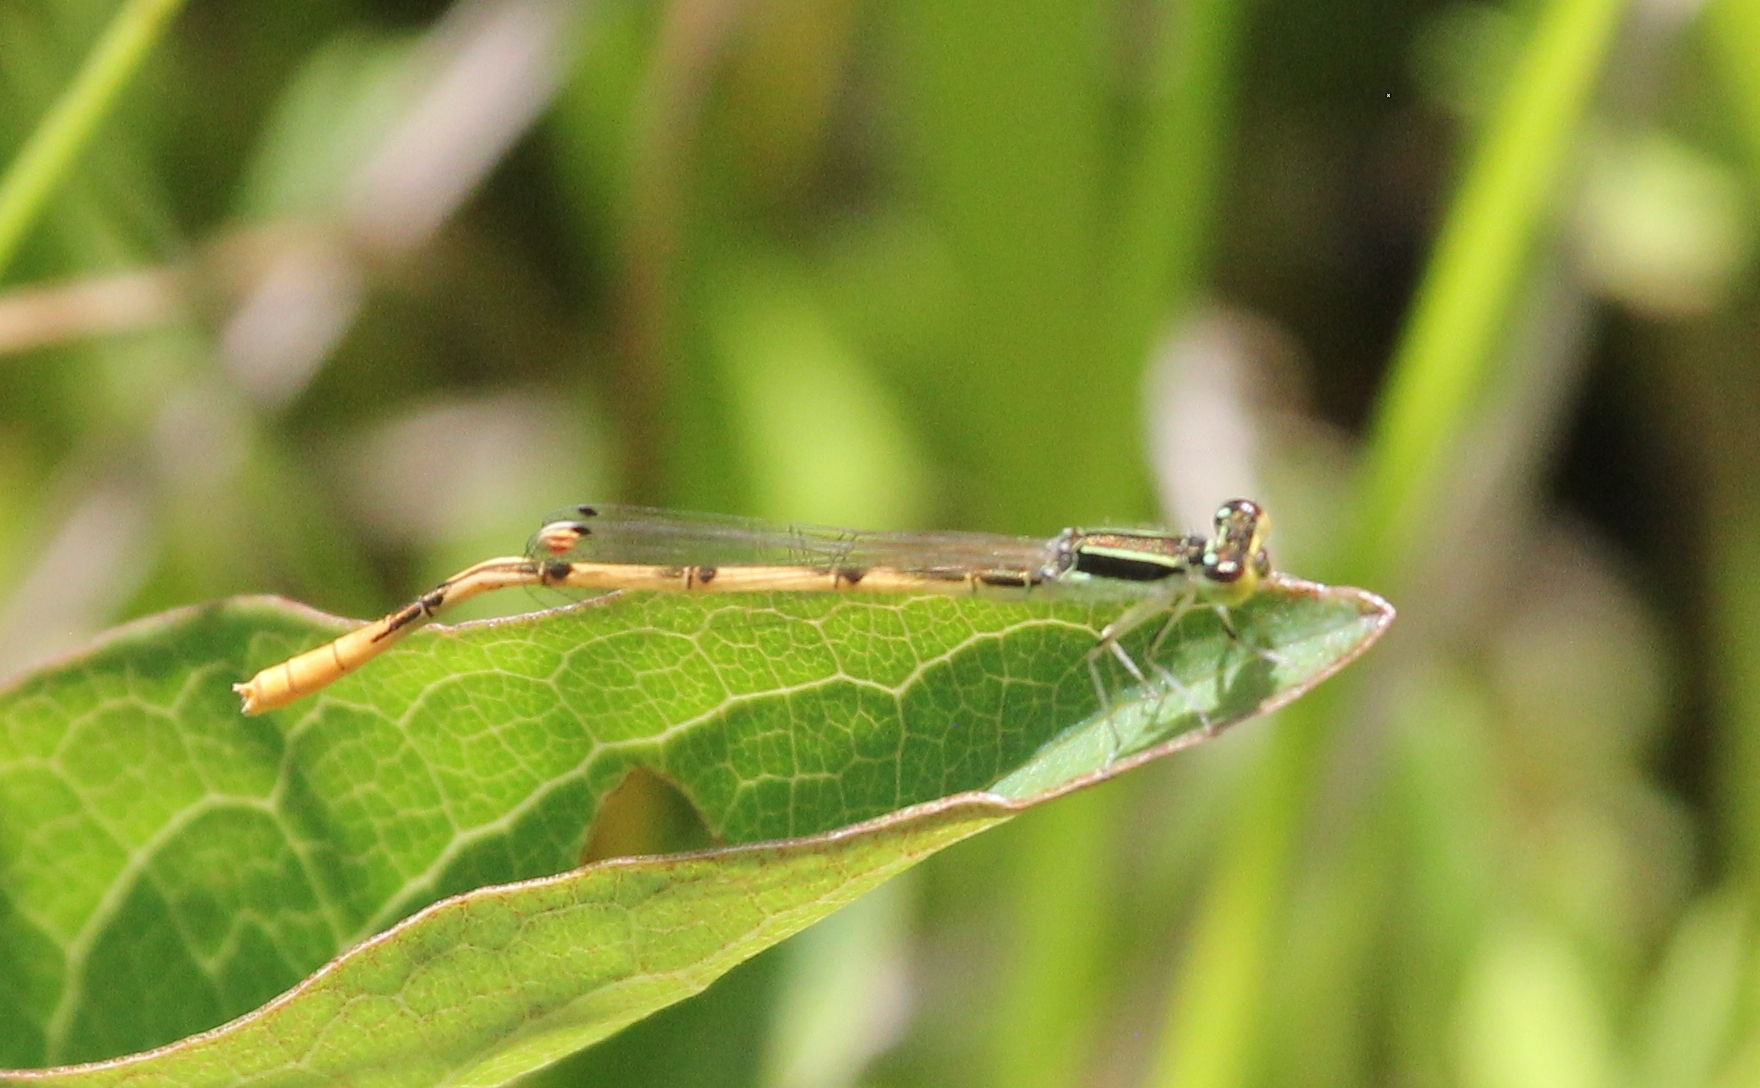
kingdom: Animalia
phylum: Arthropoda
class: Insecta
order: Odonata
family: Coenagrionidae
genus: Ischnura
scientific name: Ischnura hastata
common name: Citrine forktail
